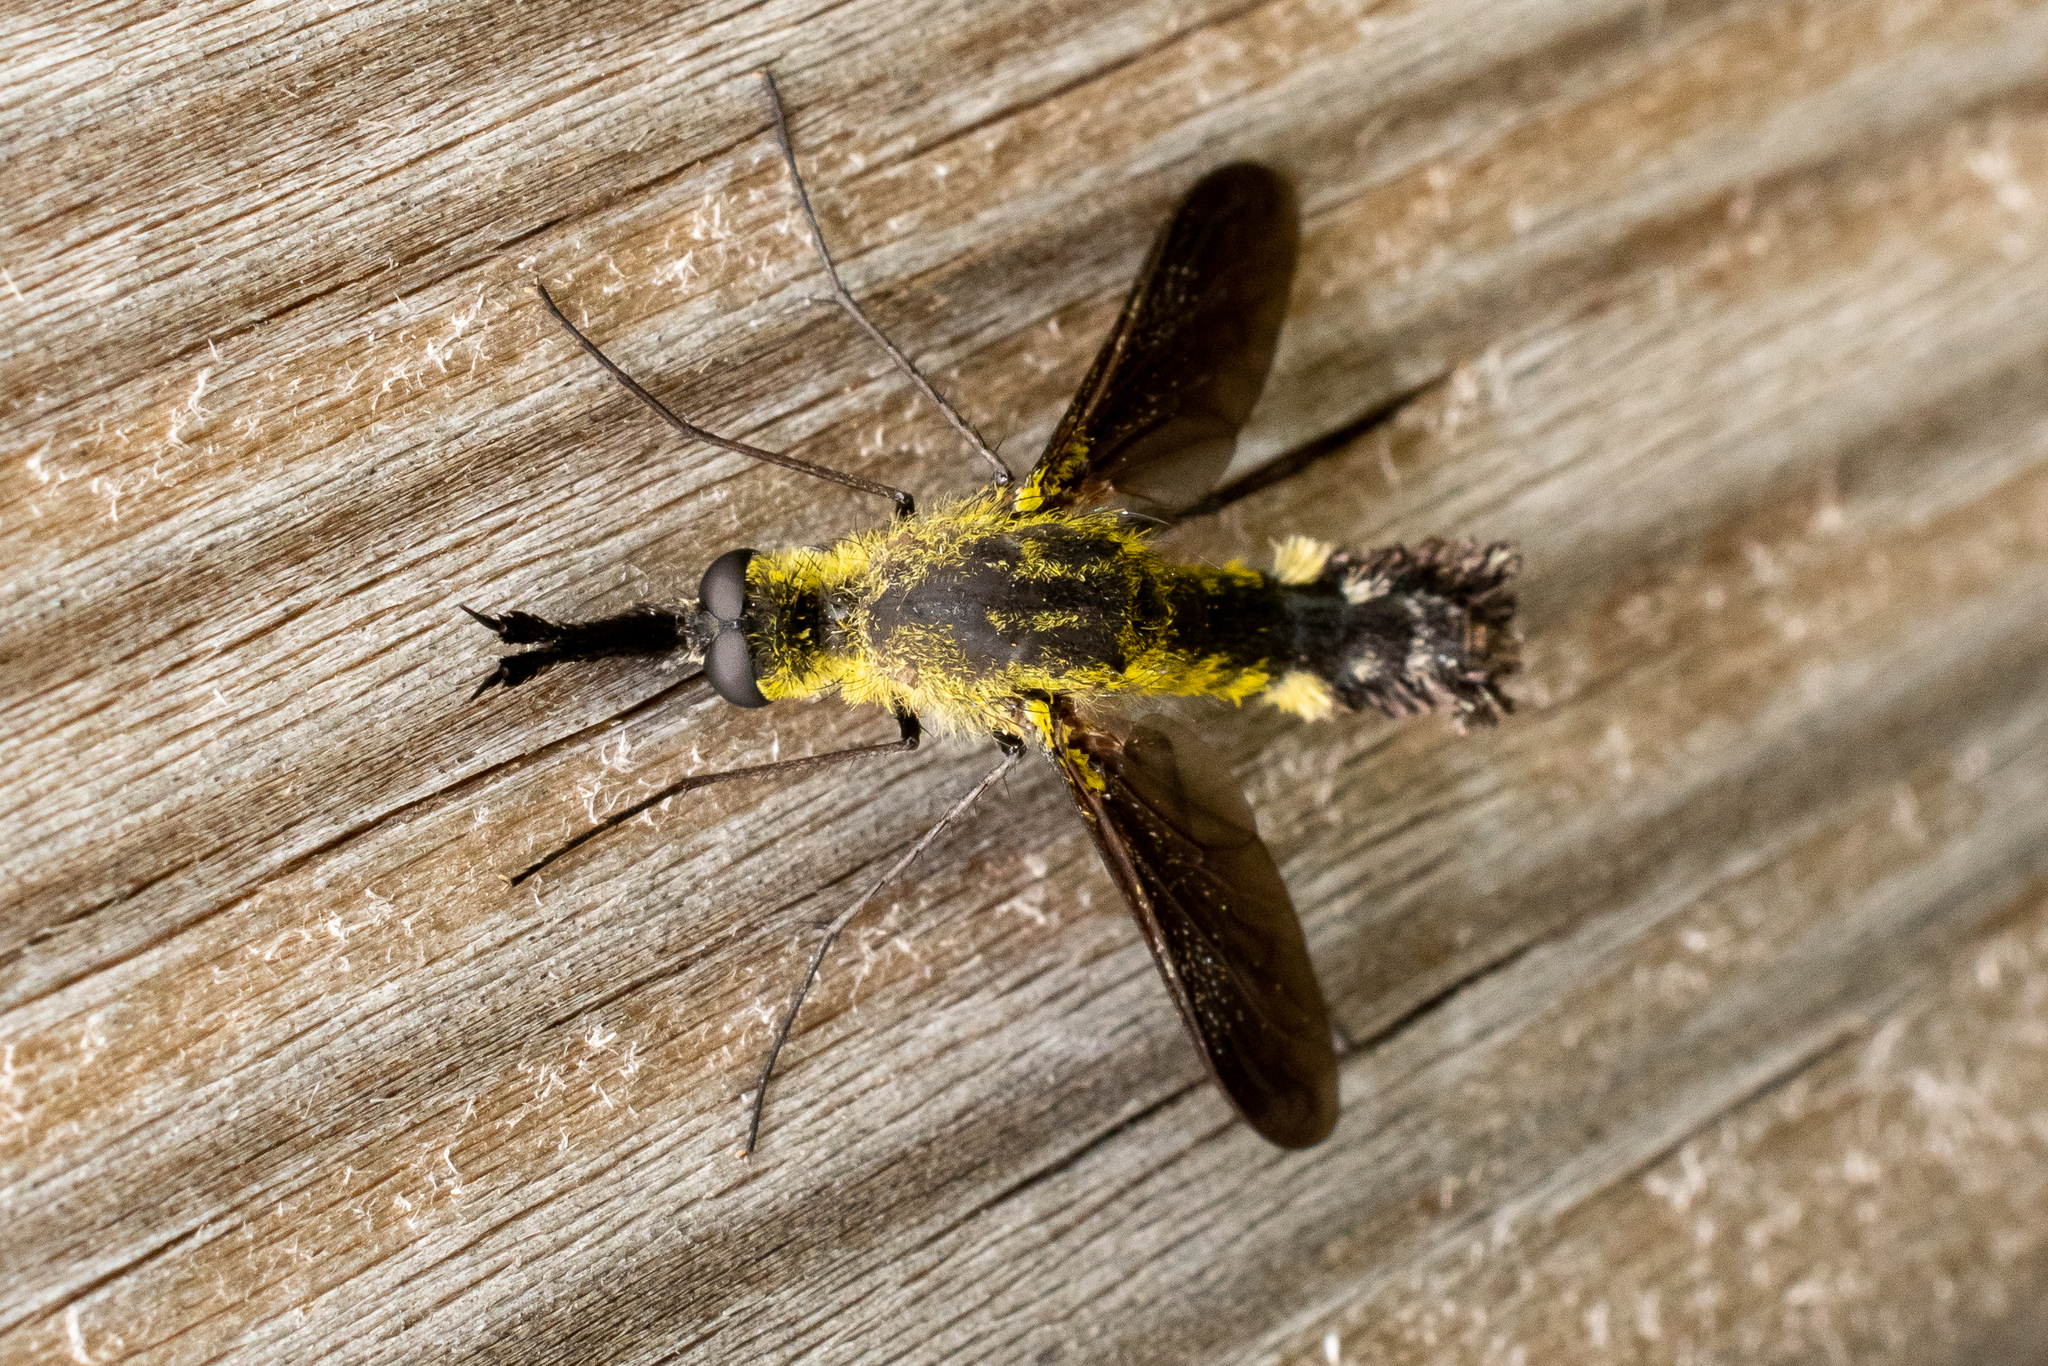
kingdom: Animalia
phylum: Arthropoda
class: Insecta
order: Diptera
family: Bombyliidae
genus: Lepidophora
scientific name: Lepidophora lutea
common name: Hunchback bee fly
